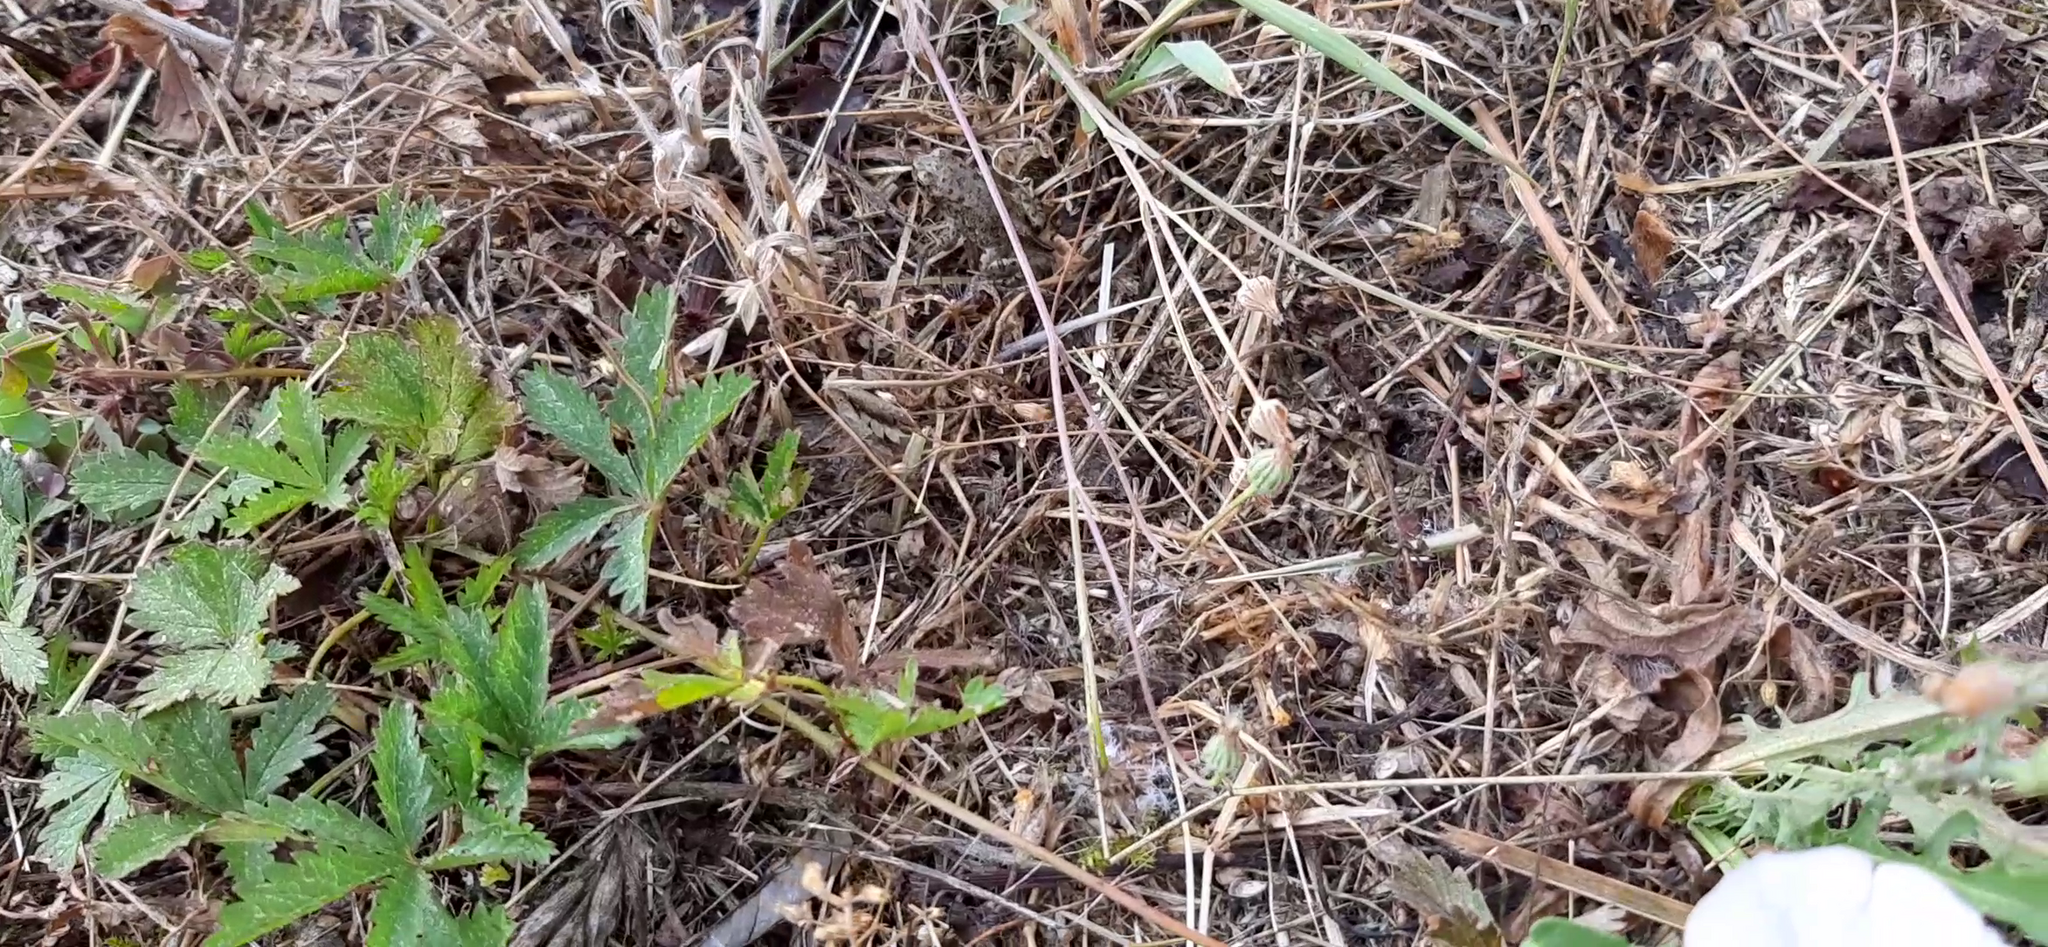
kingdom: Animalia
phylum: Chordata
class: Amphibia
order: Anura
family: Bufonidae
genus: Bufotes
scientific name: Bufotes viridis
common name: European green toad
